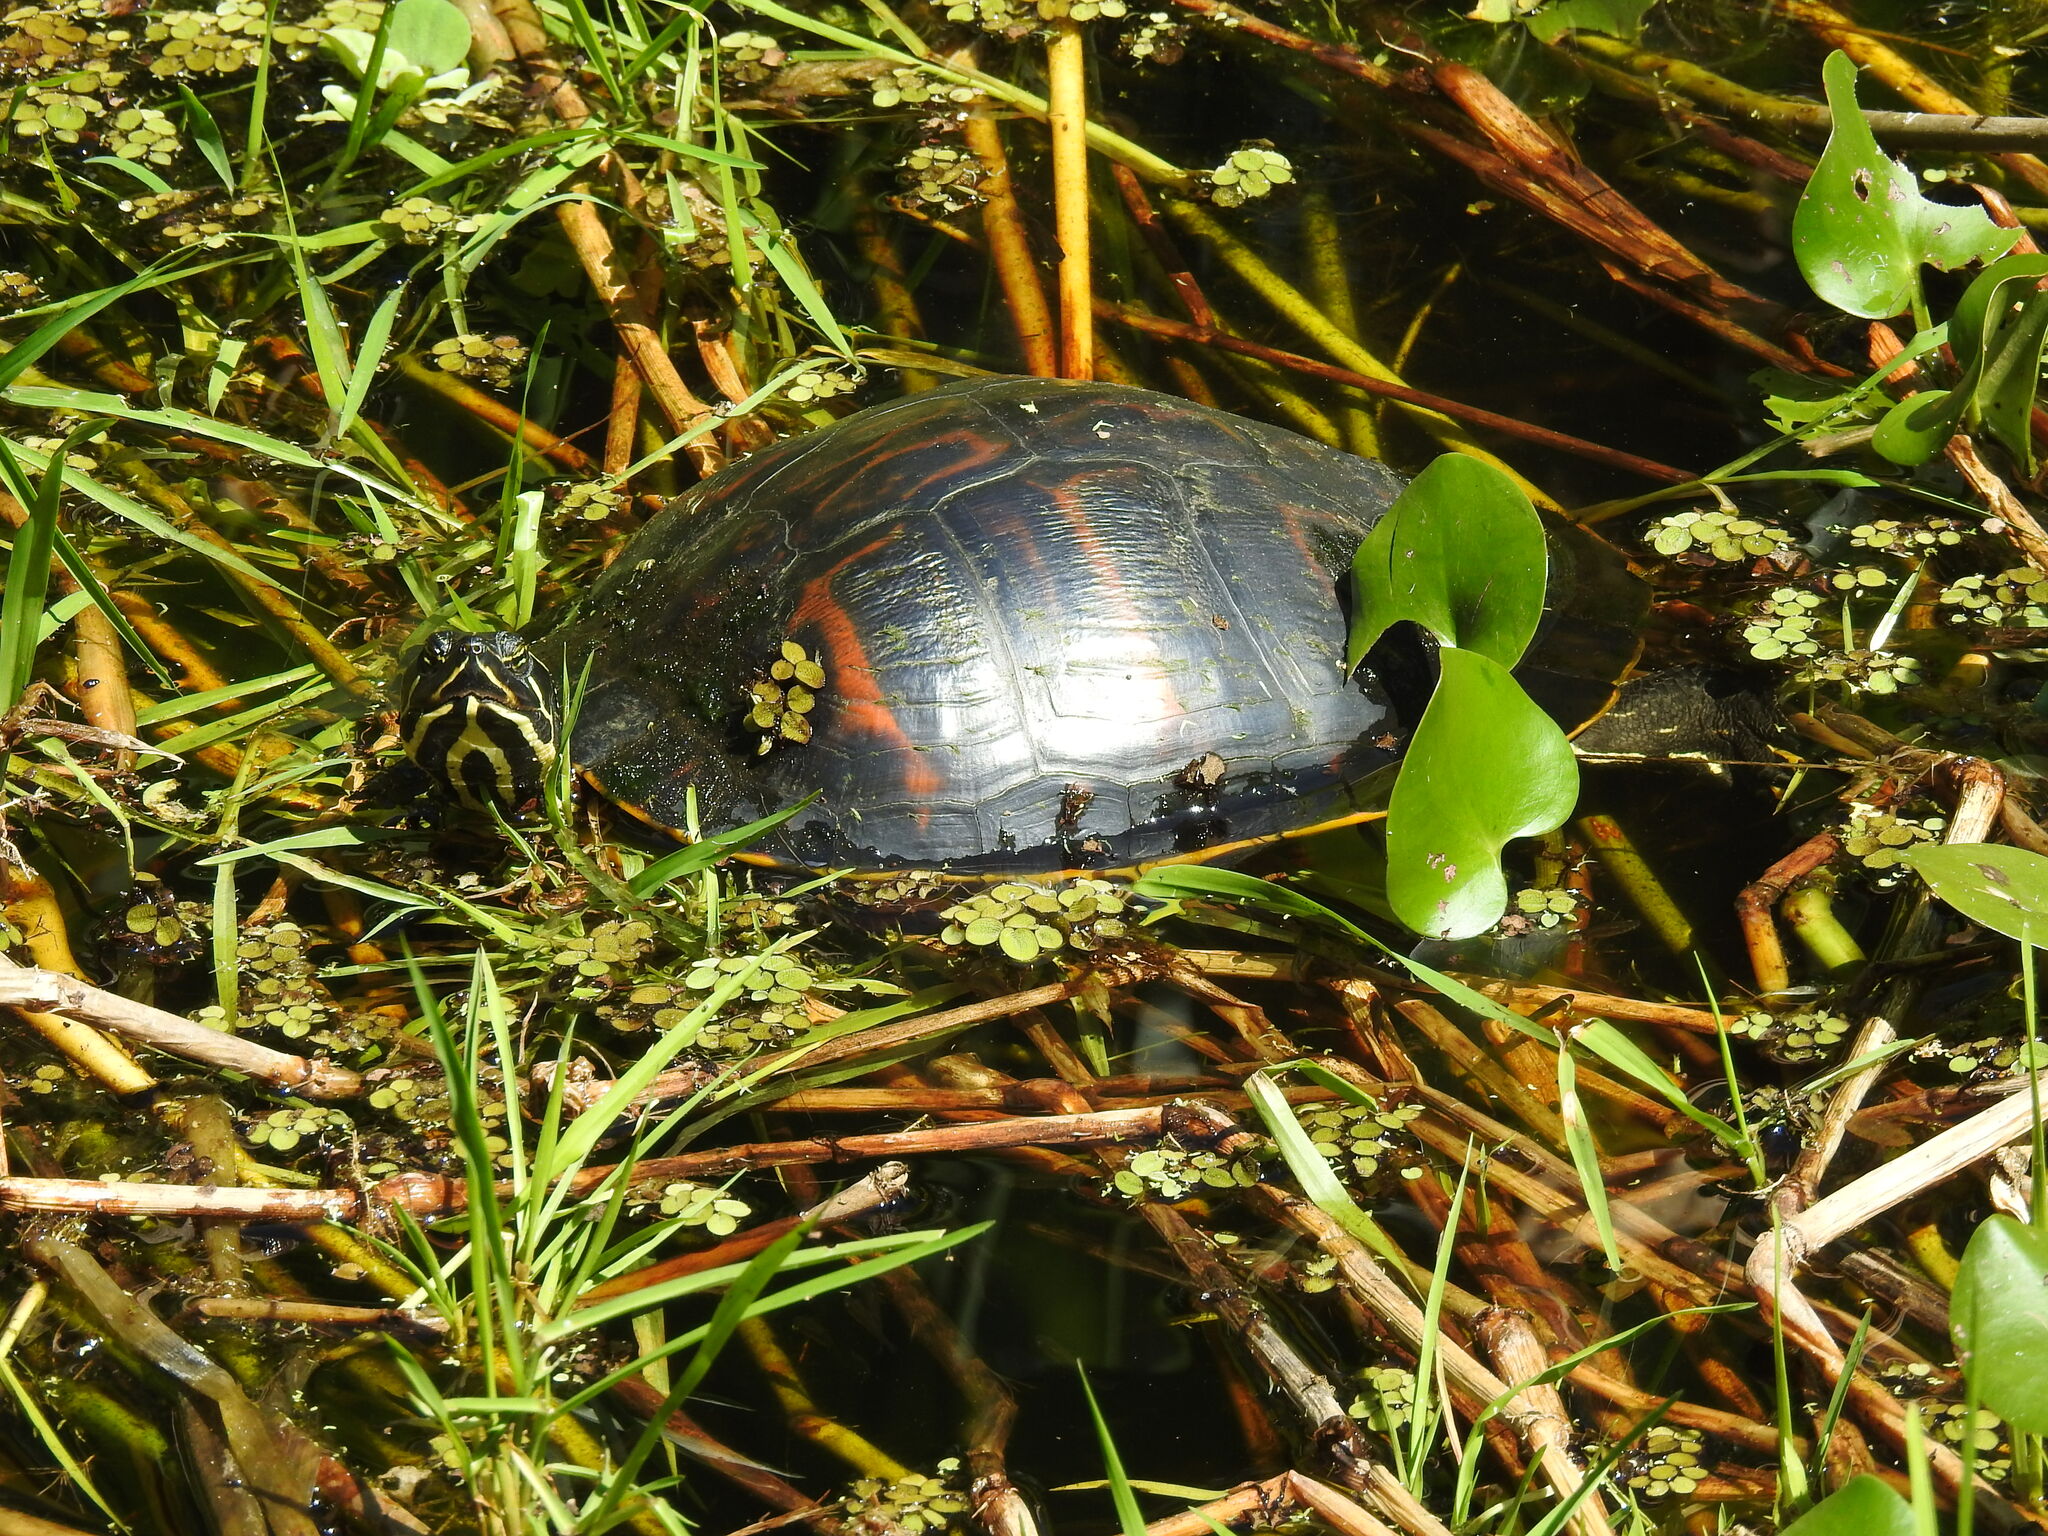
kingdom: Animalia
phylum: Chordata
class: Testudines
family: Emydidae
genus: Pseudemys
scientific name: Pseudemys nelsoni
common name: Florida red-bellied turtle
